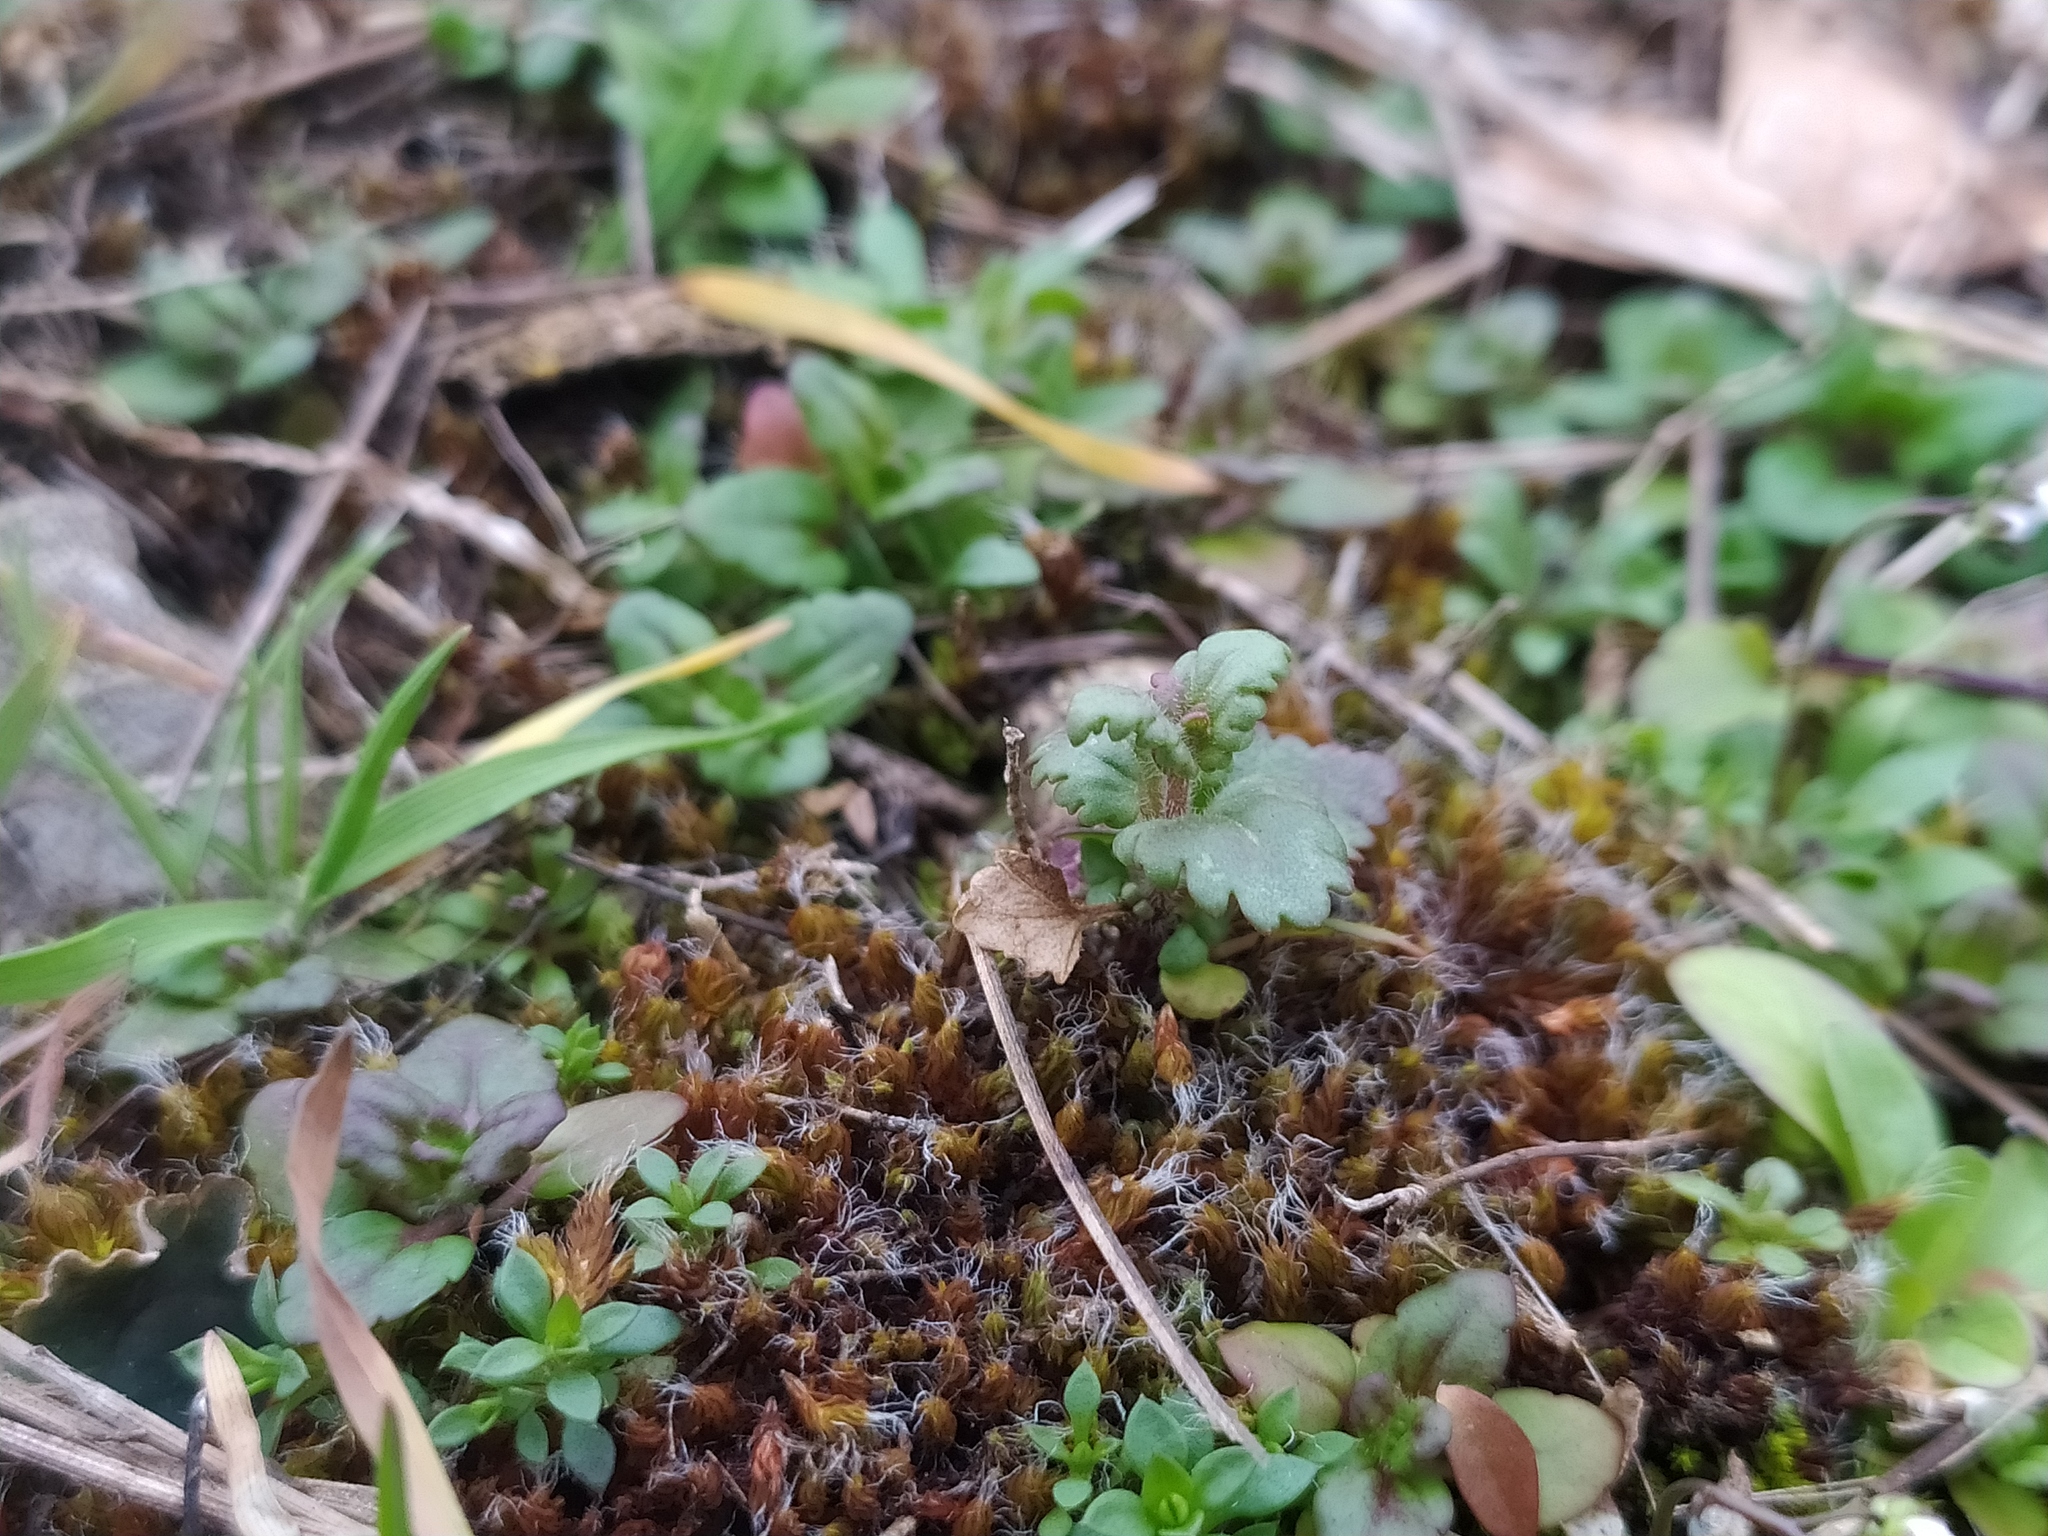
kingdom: Plantae
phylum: Tracheophyta
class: Magnoliopsida
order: Lamiales
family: Plantaginaceae
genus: Veronica
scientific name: Veronica praecox
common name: Breckland speedwell
